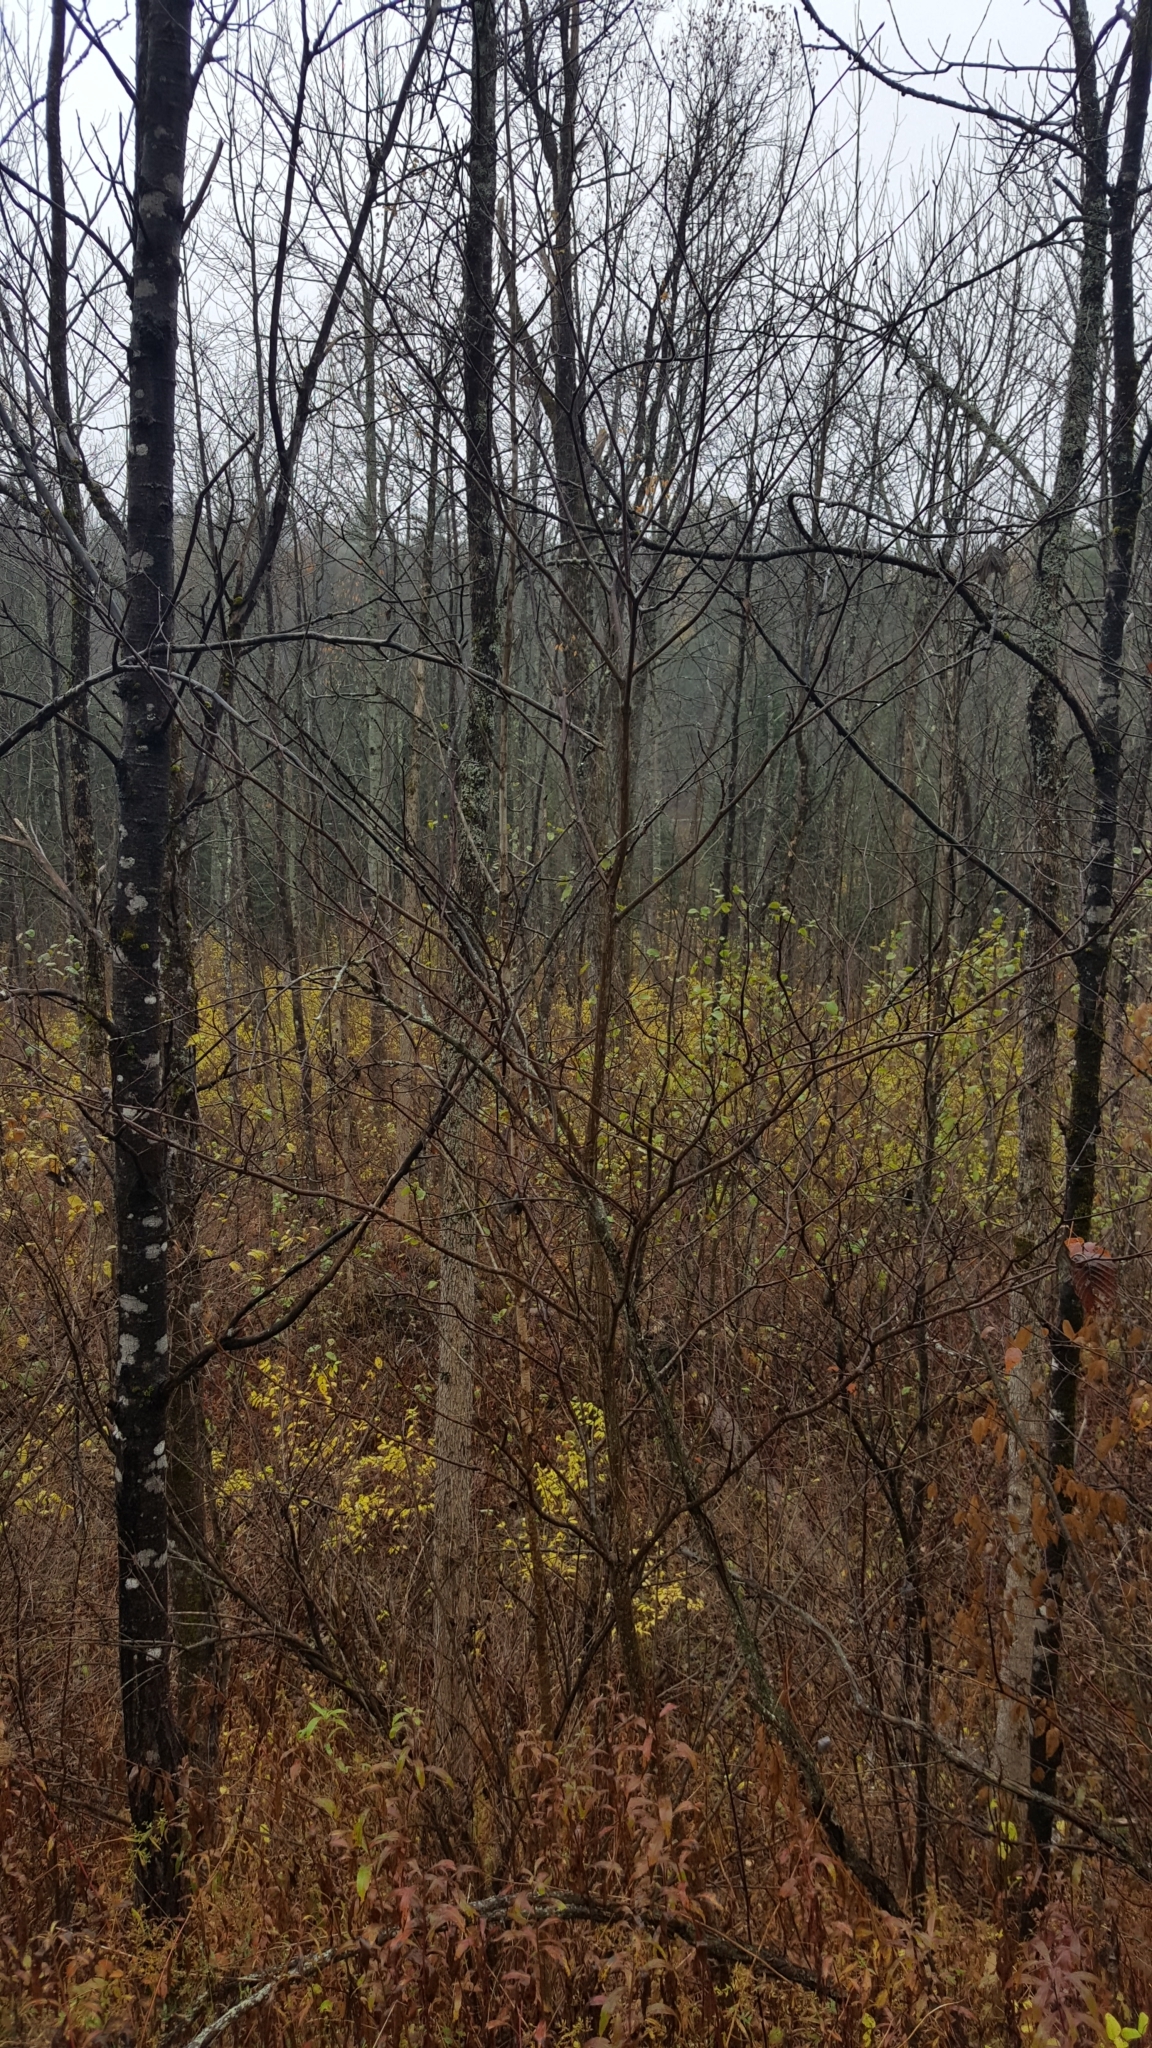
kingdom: Plantae
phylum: Tracheophyta
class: Magnoliopsida
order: Cornales
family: Cornaceae
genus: Cornus
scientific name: Cornus alternifolia
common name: Pagoda dogwood
